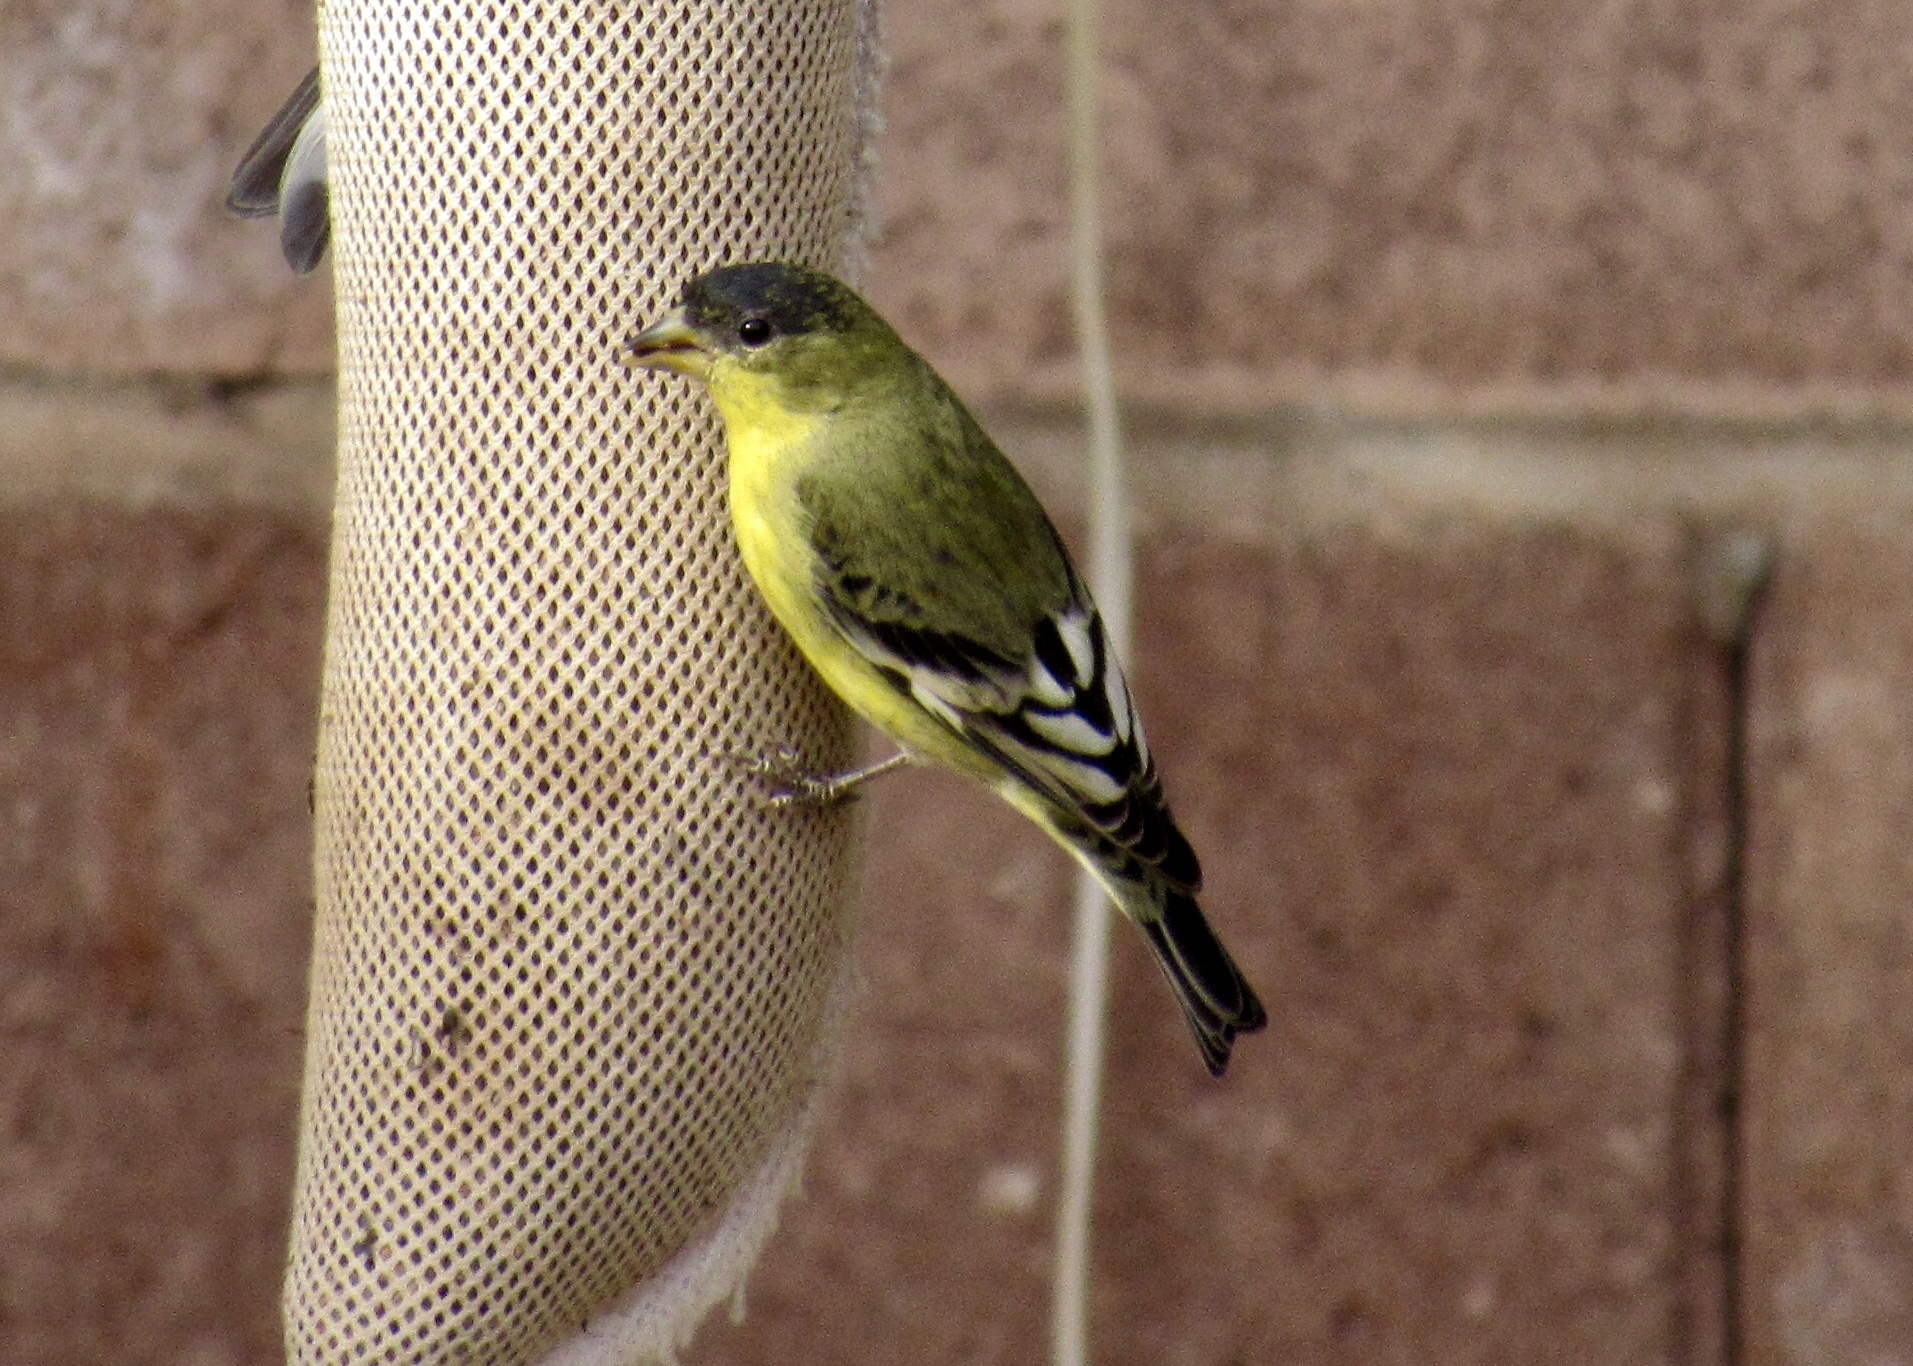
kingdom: Animalia
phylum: Chordata
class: Aves
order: Passeriformes
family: Fringillidae
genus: Spinus
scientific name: Spinus psaltria
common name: Lesser goldfinch
